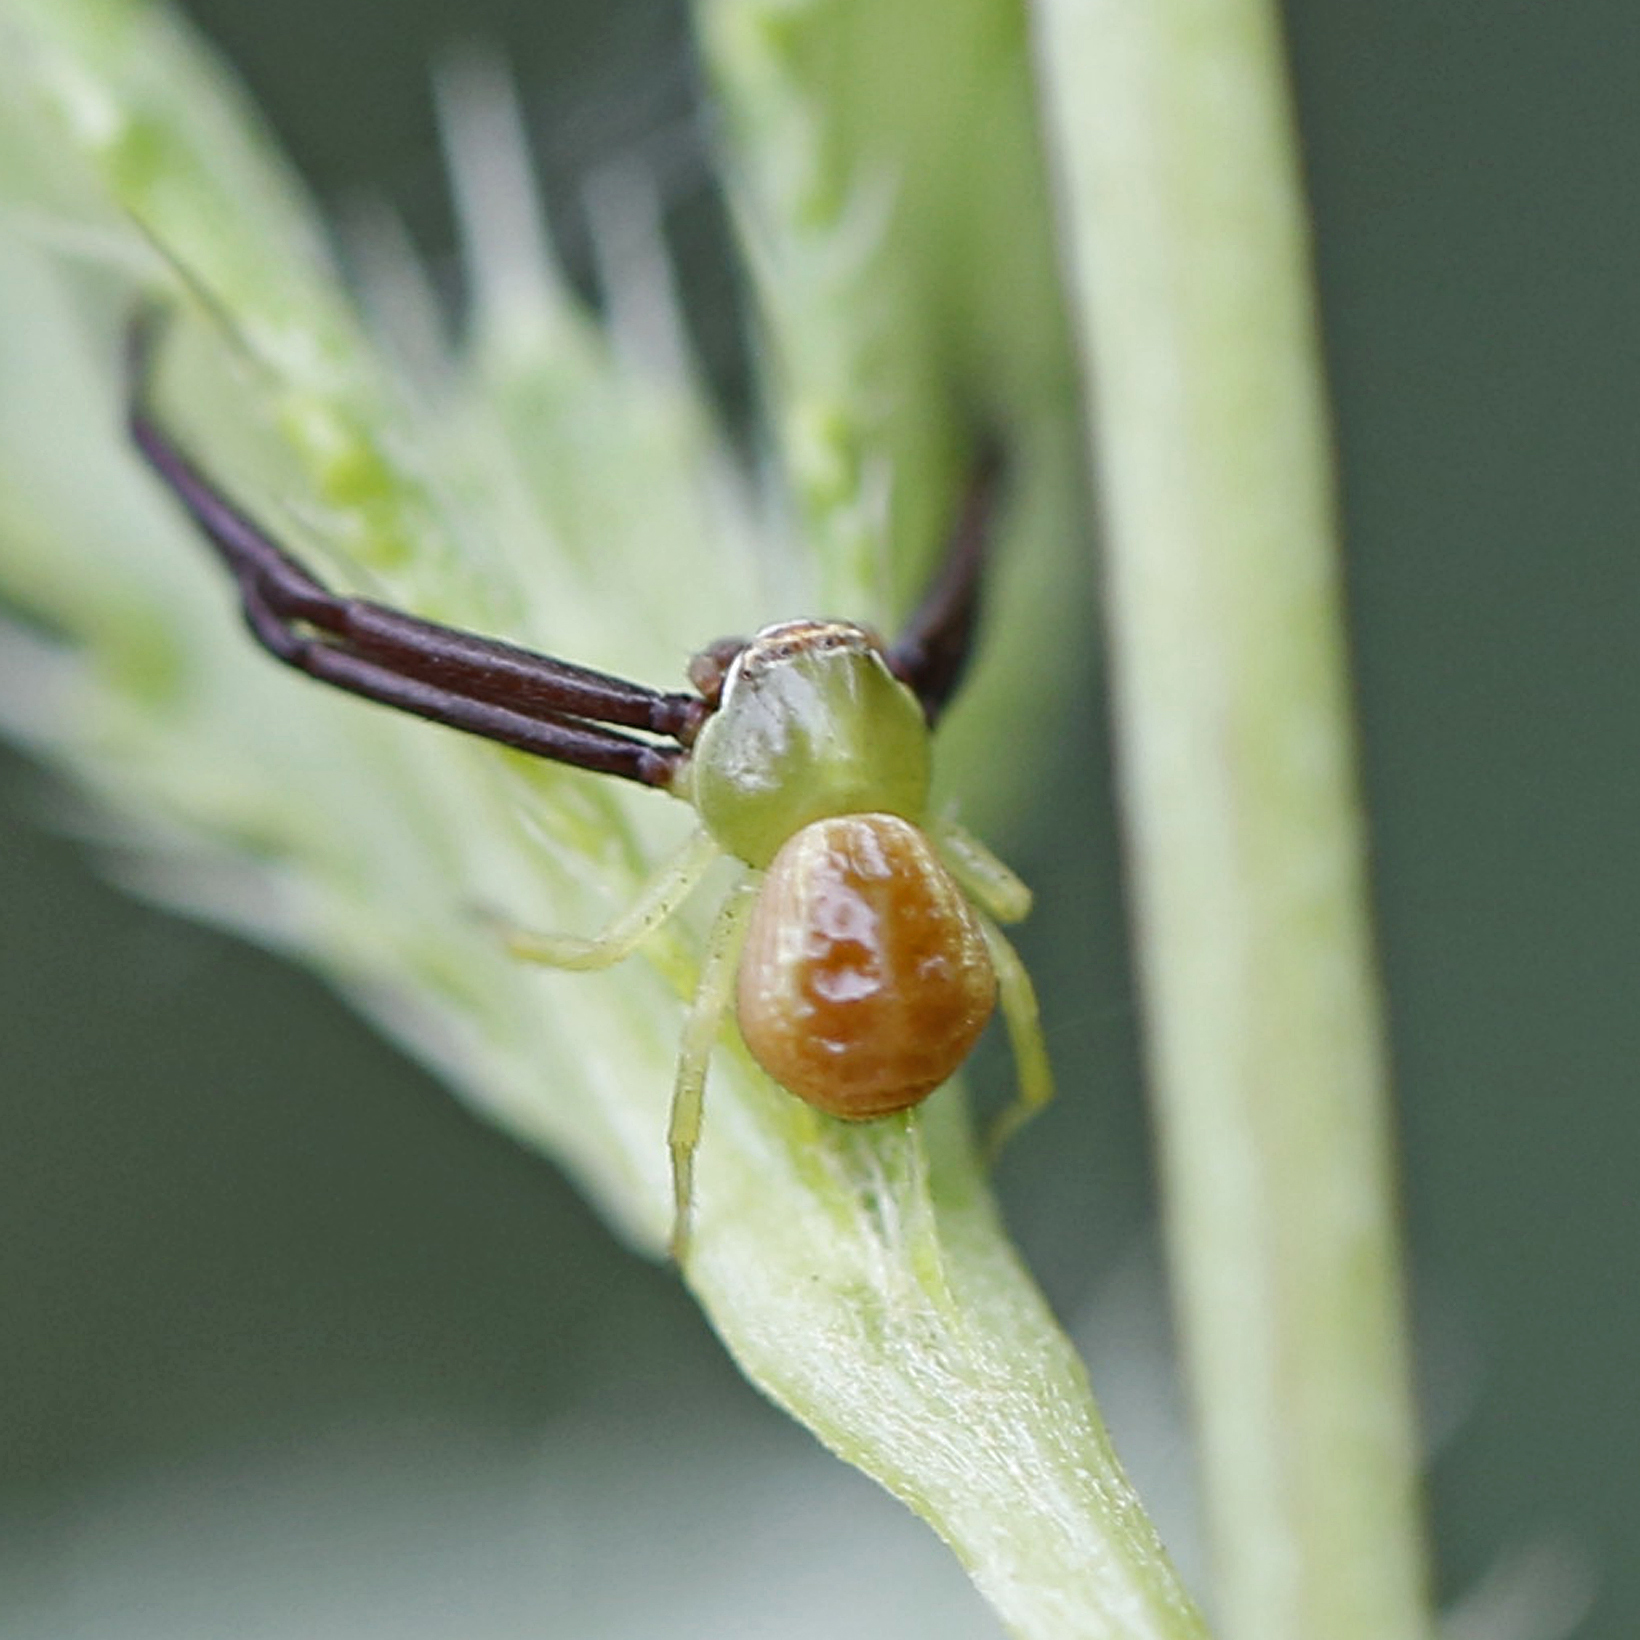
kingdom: Animalia
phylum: Arthropoda
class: Arachnida
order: Araneae
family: Thomisidae
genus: Misumenoides
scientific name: Misumenoides formosipes
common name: White-banded crab spider
